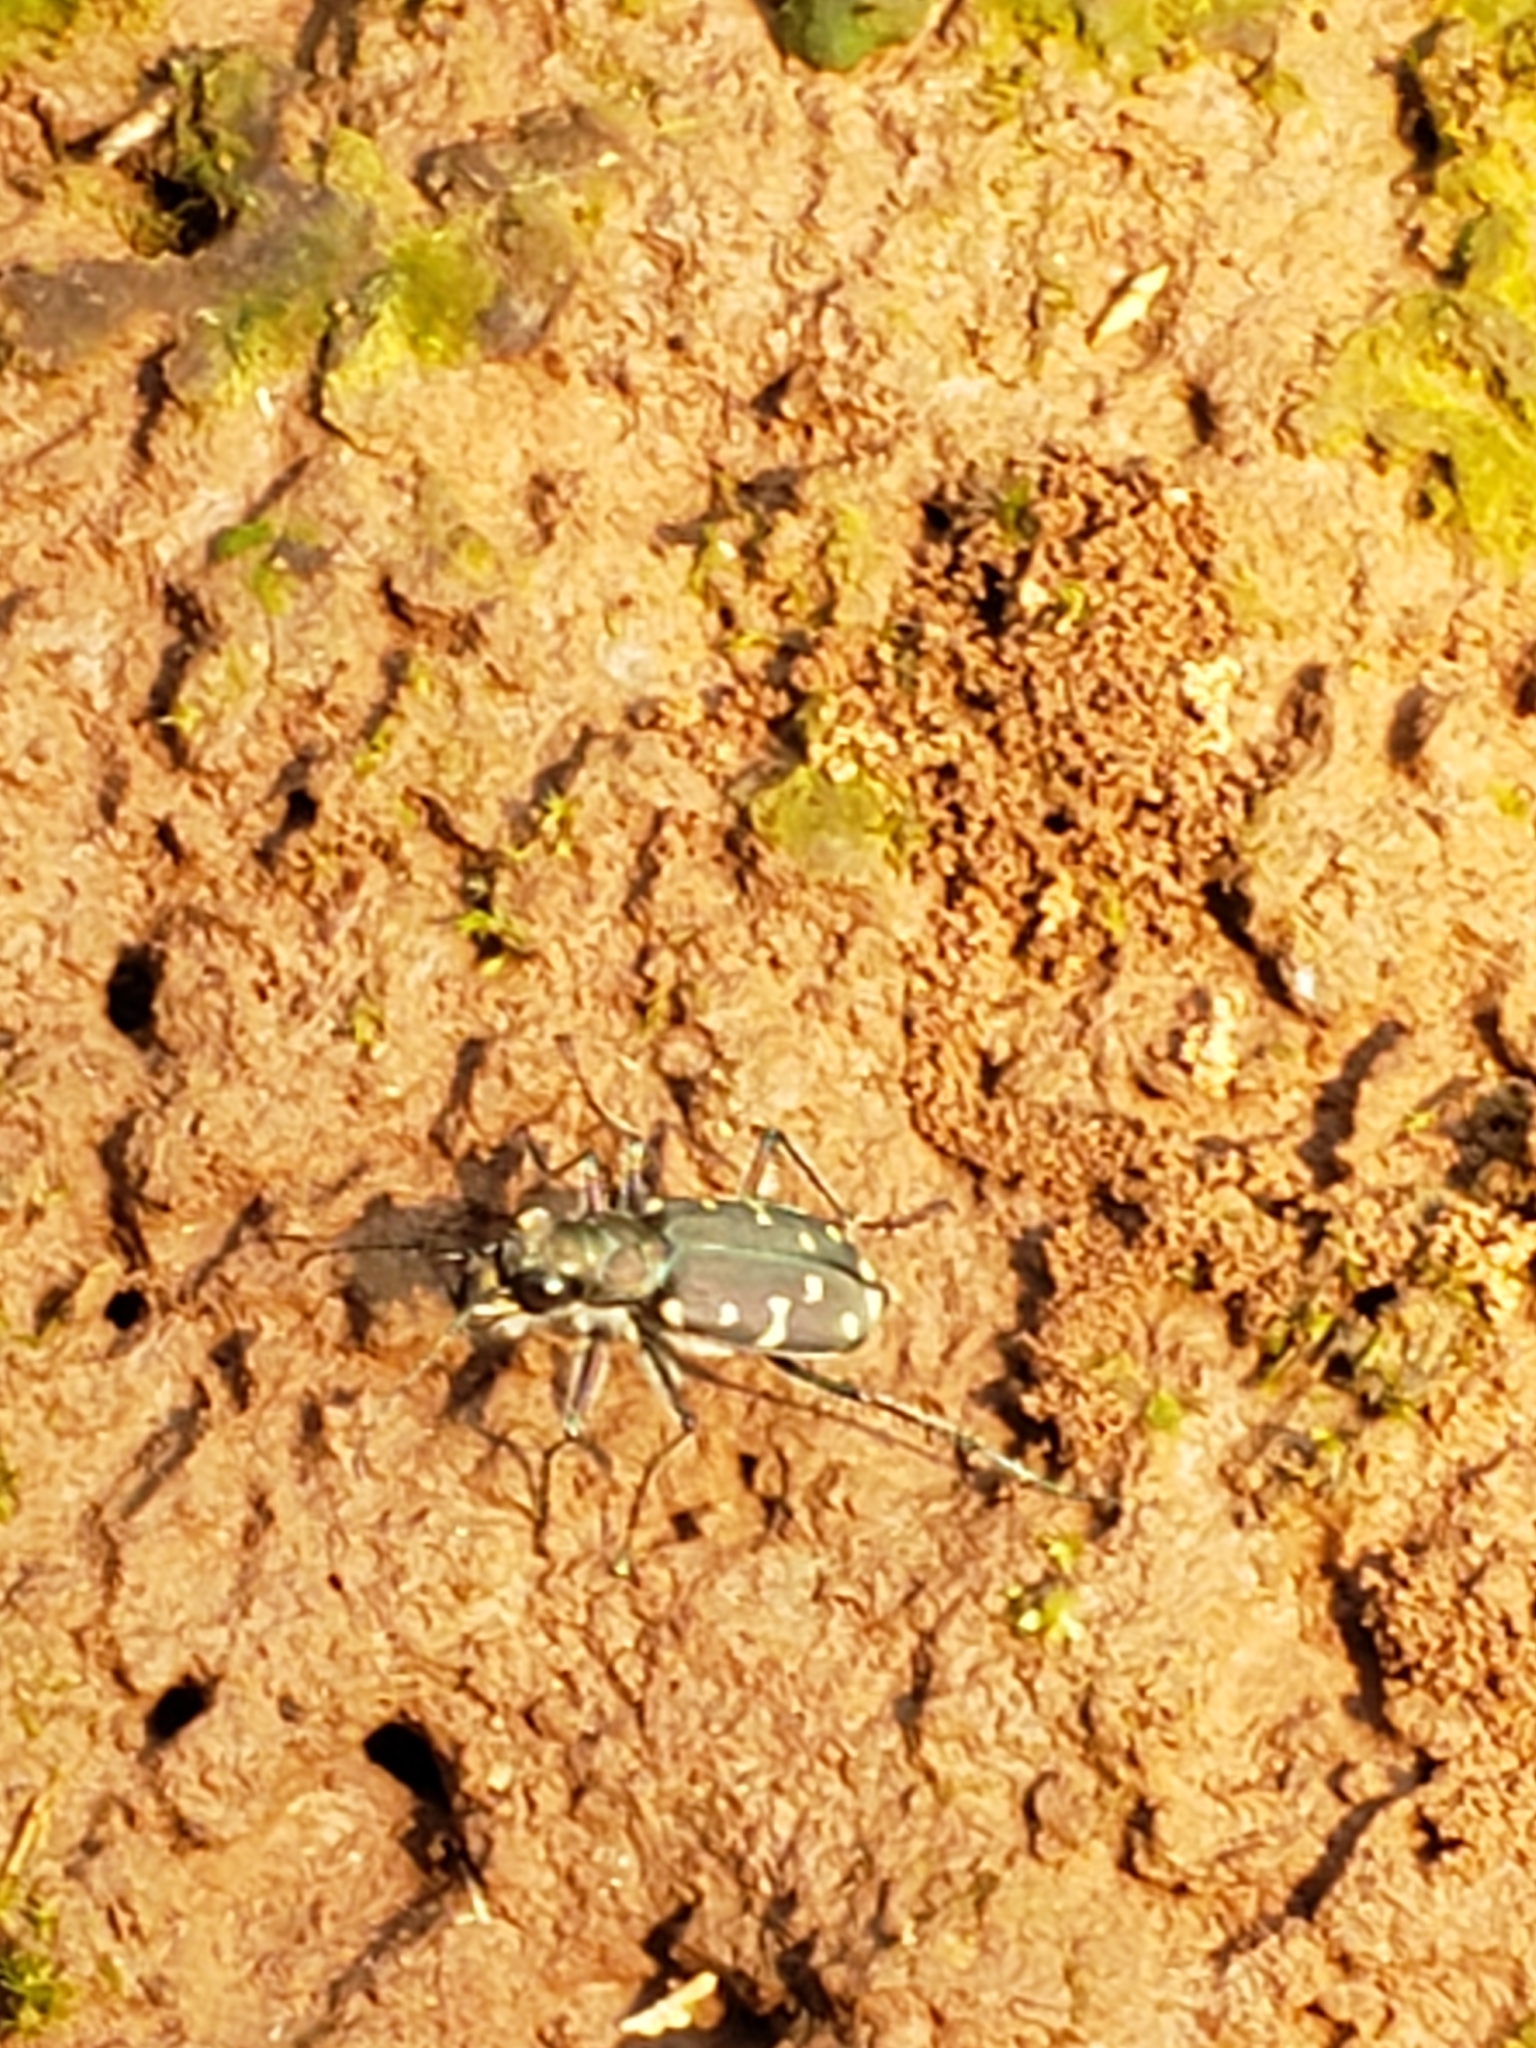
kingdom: Animalia
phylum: Arthropoda
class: Insecta
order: Coleoptera
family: Carabidae
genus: Cicindela
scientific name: Cicindela duodecimguttata
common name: Twelve-spotted tiger beetle
